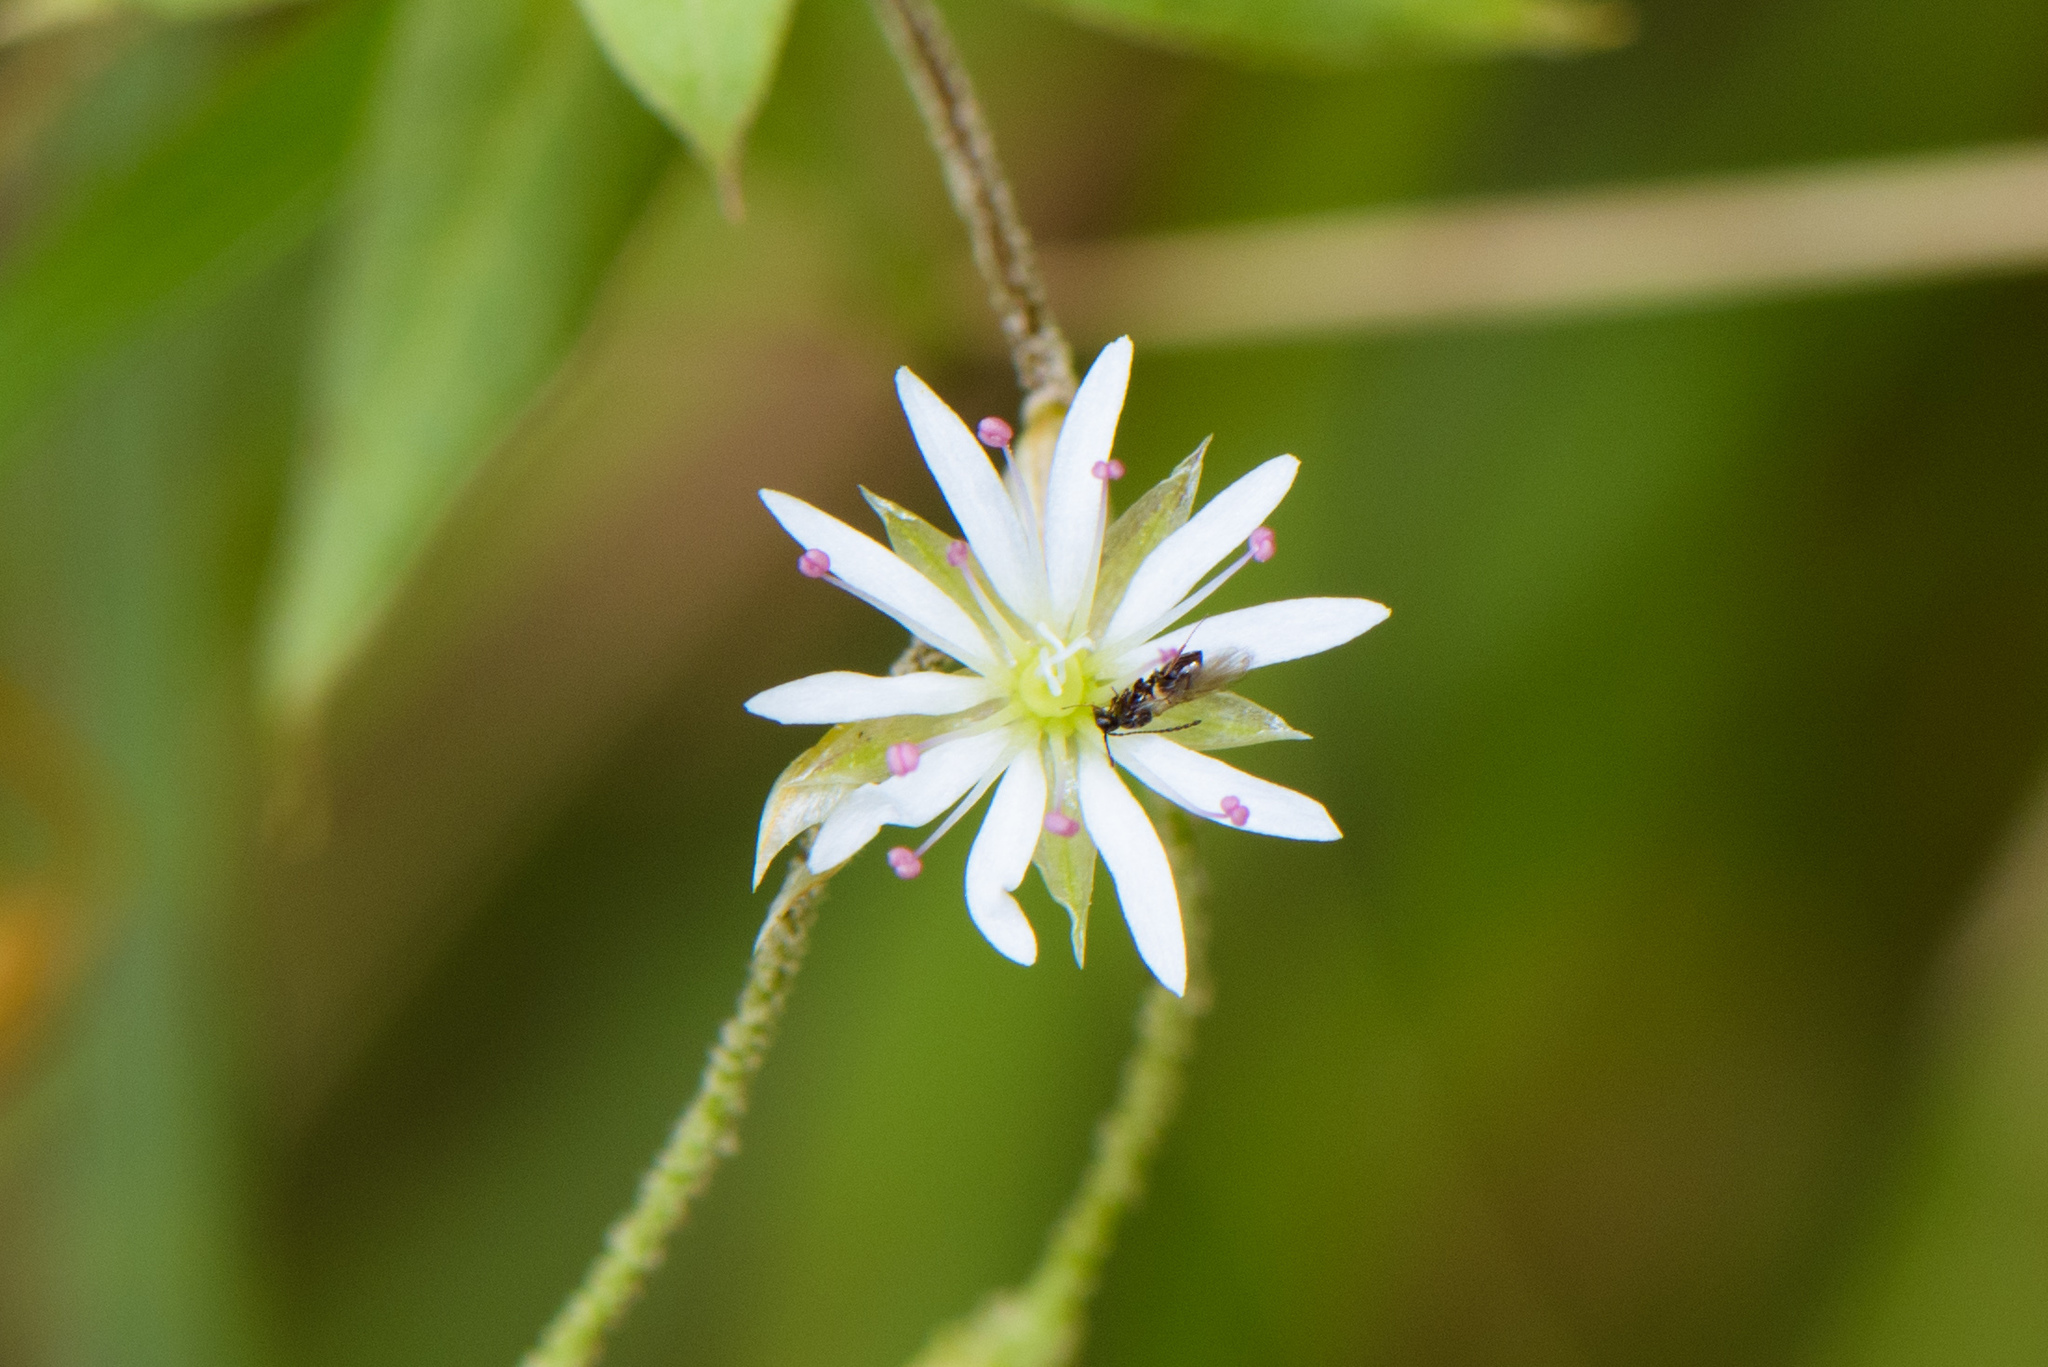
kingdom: Plantae
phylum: Tracheophyta
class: Magnoliopsida
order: Caryophyllales
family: Caryophyllaceae
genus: Stellaria
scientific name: Stellaria vestita
